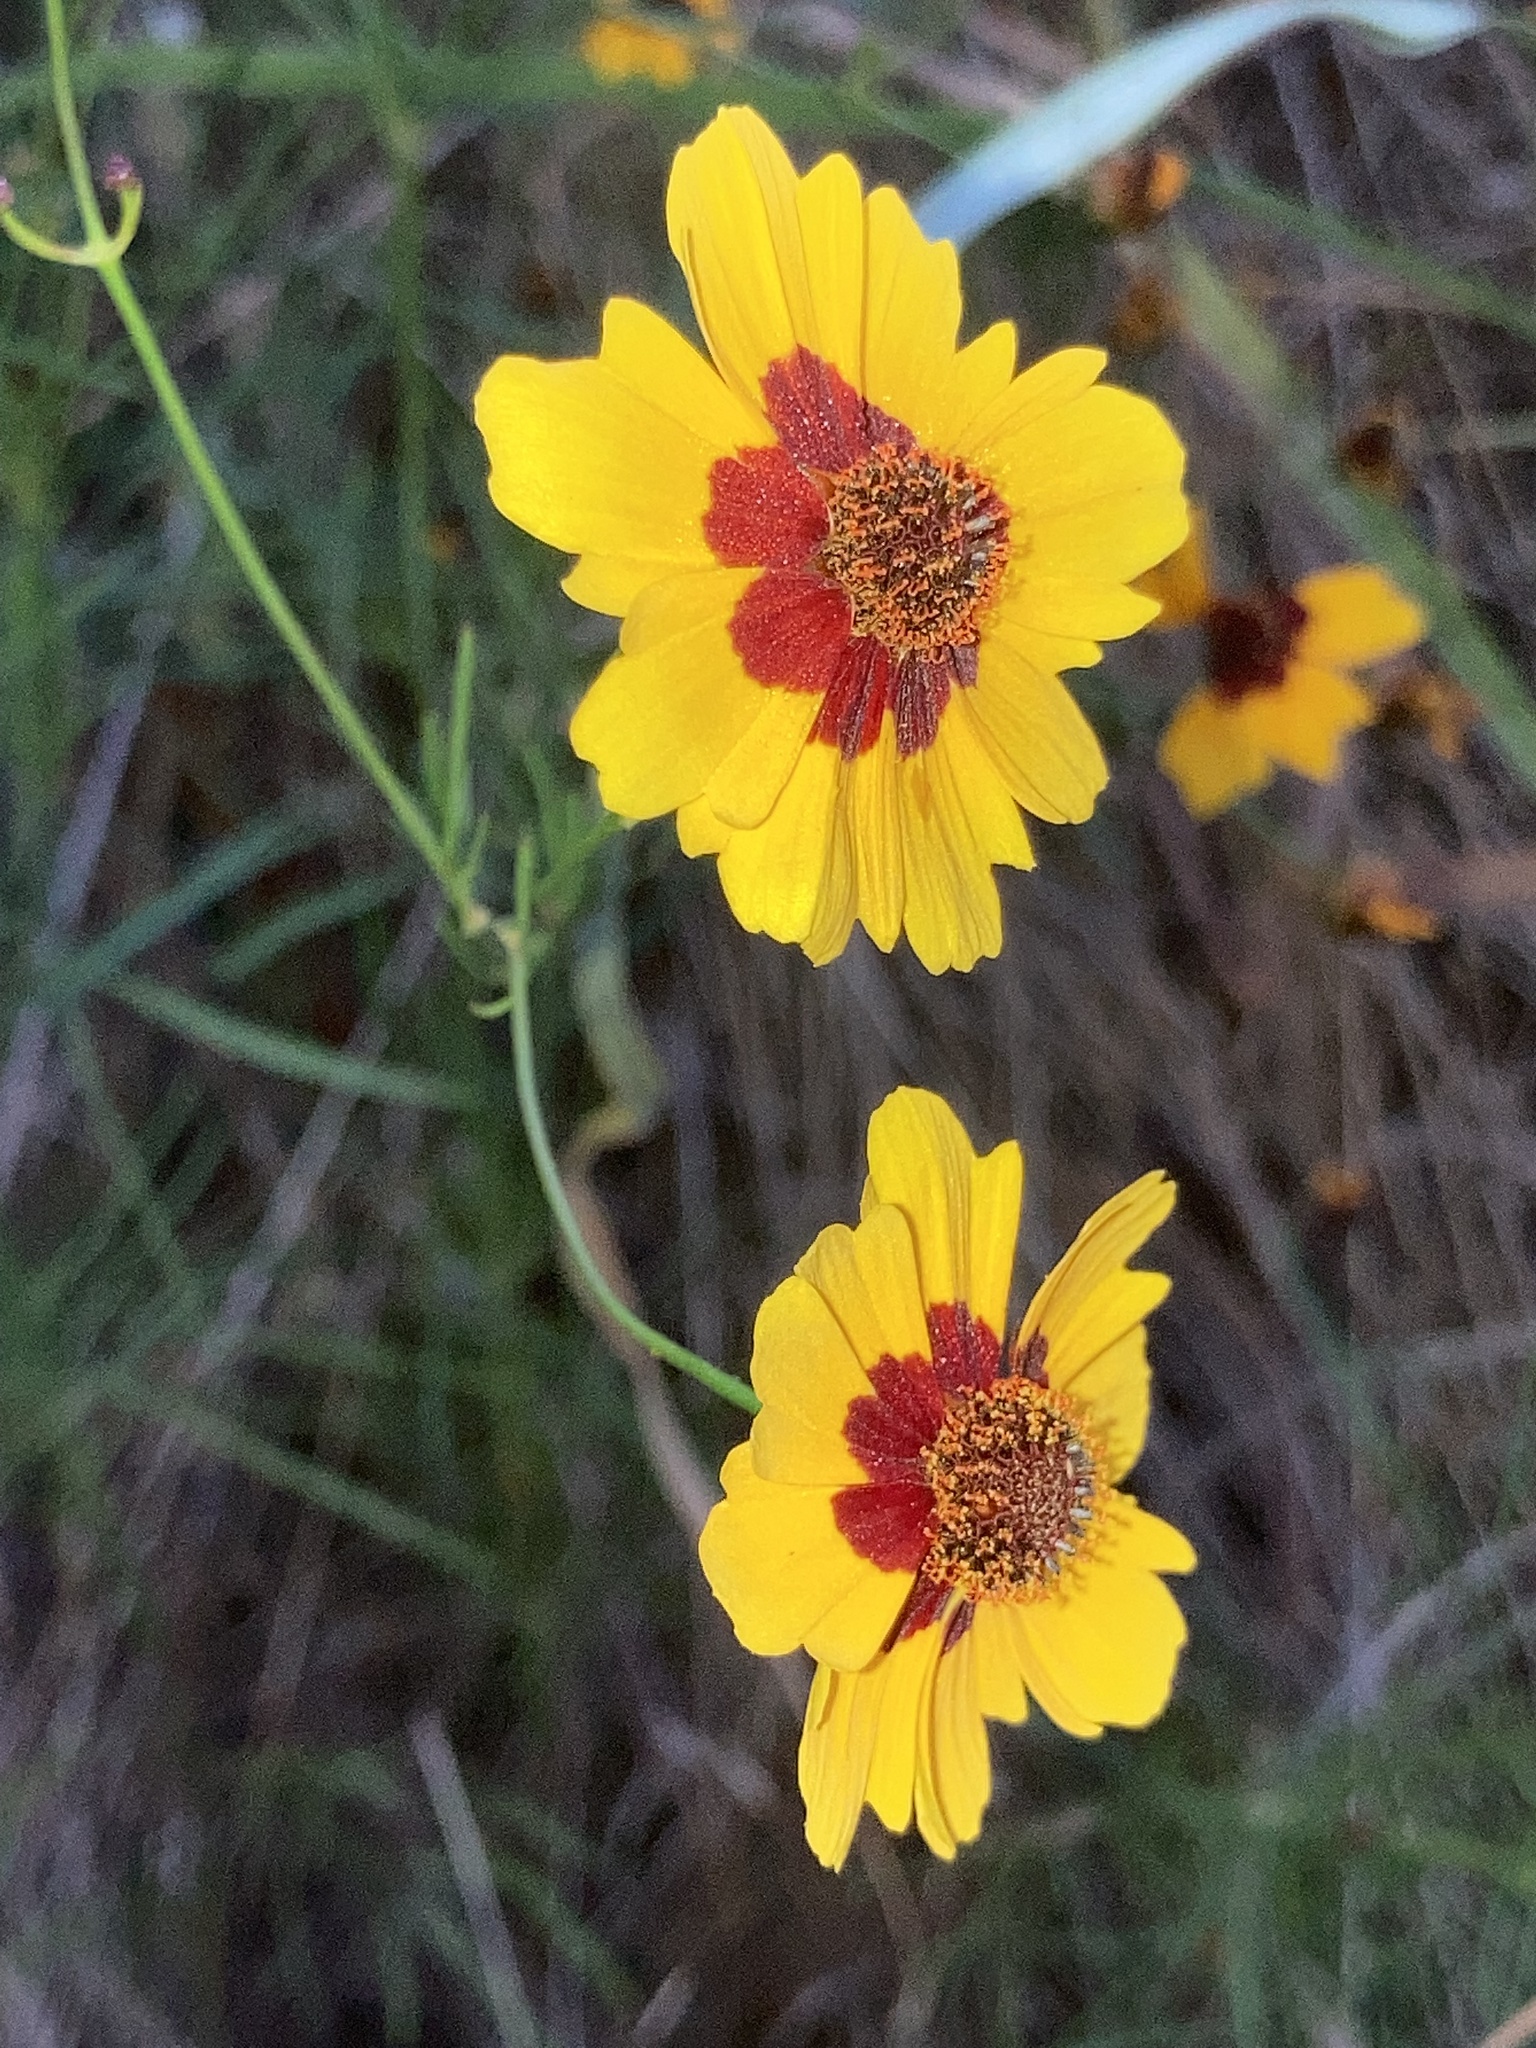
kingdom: Plantae
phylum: Tracheophyta
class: Magnoliopsida
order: Asterales
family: Asteraceae
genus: Coreopsis
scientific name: Coreopsis tinctoria
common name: Garden tickseed
